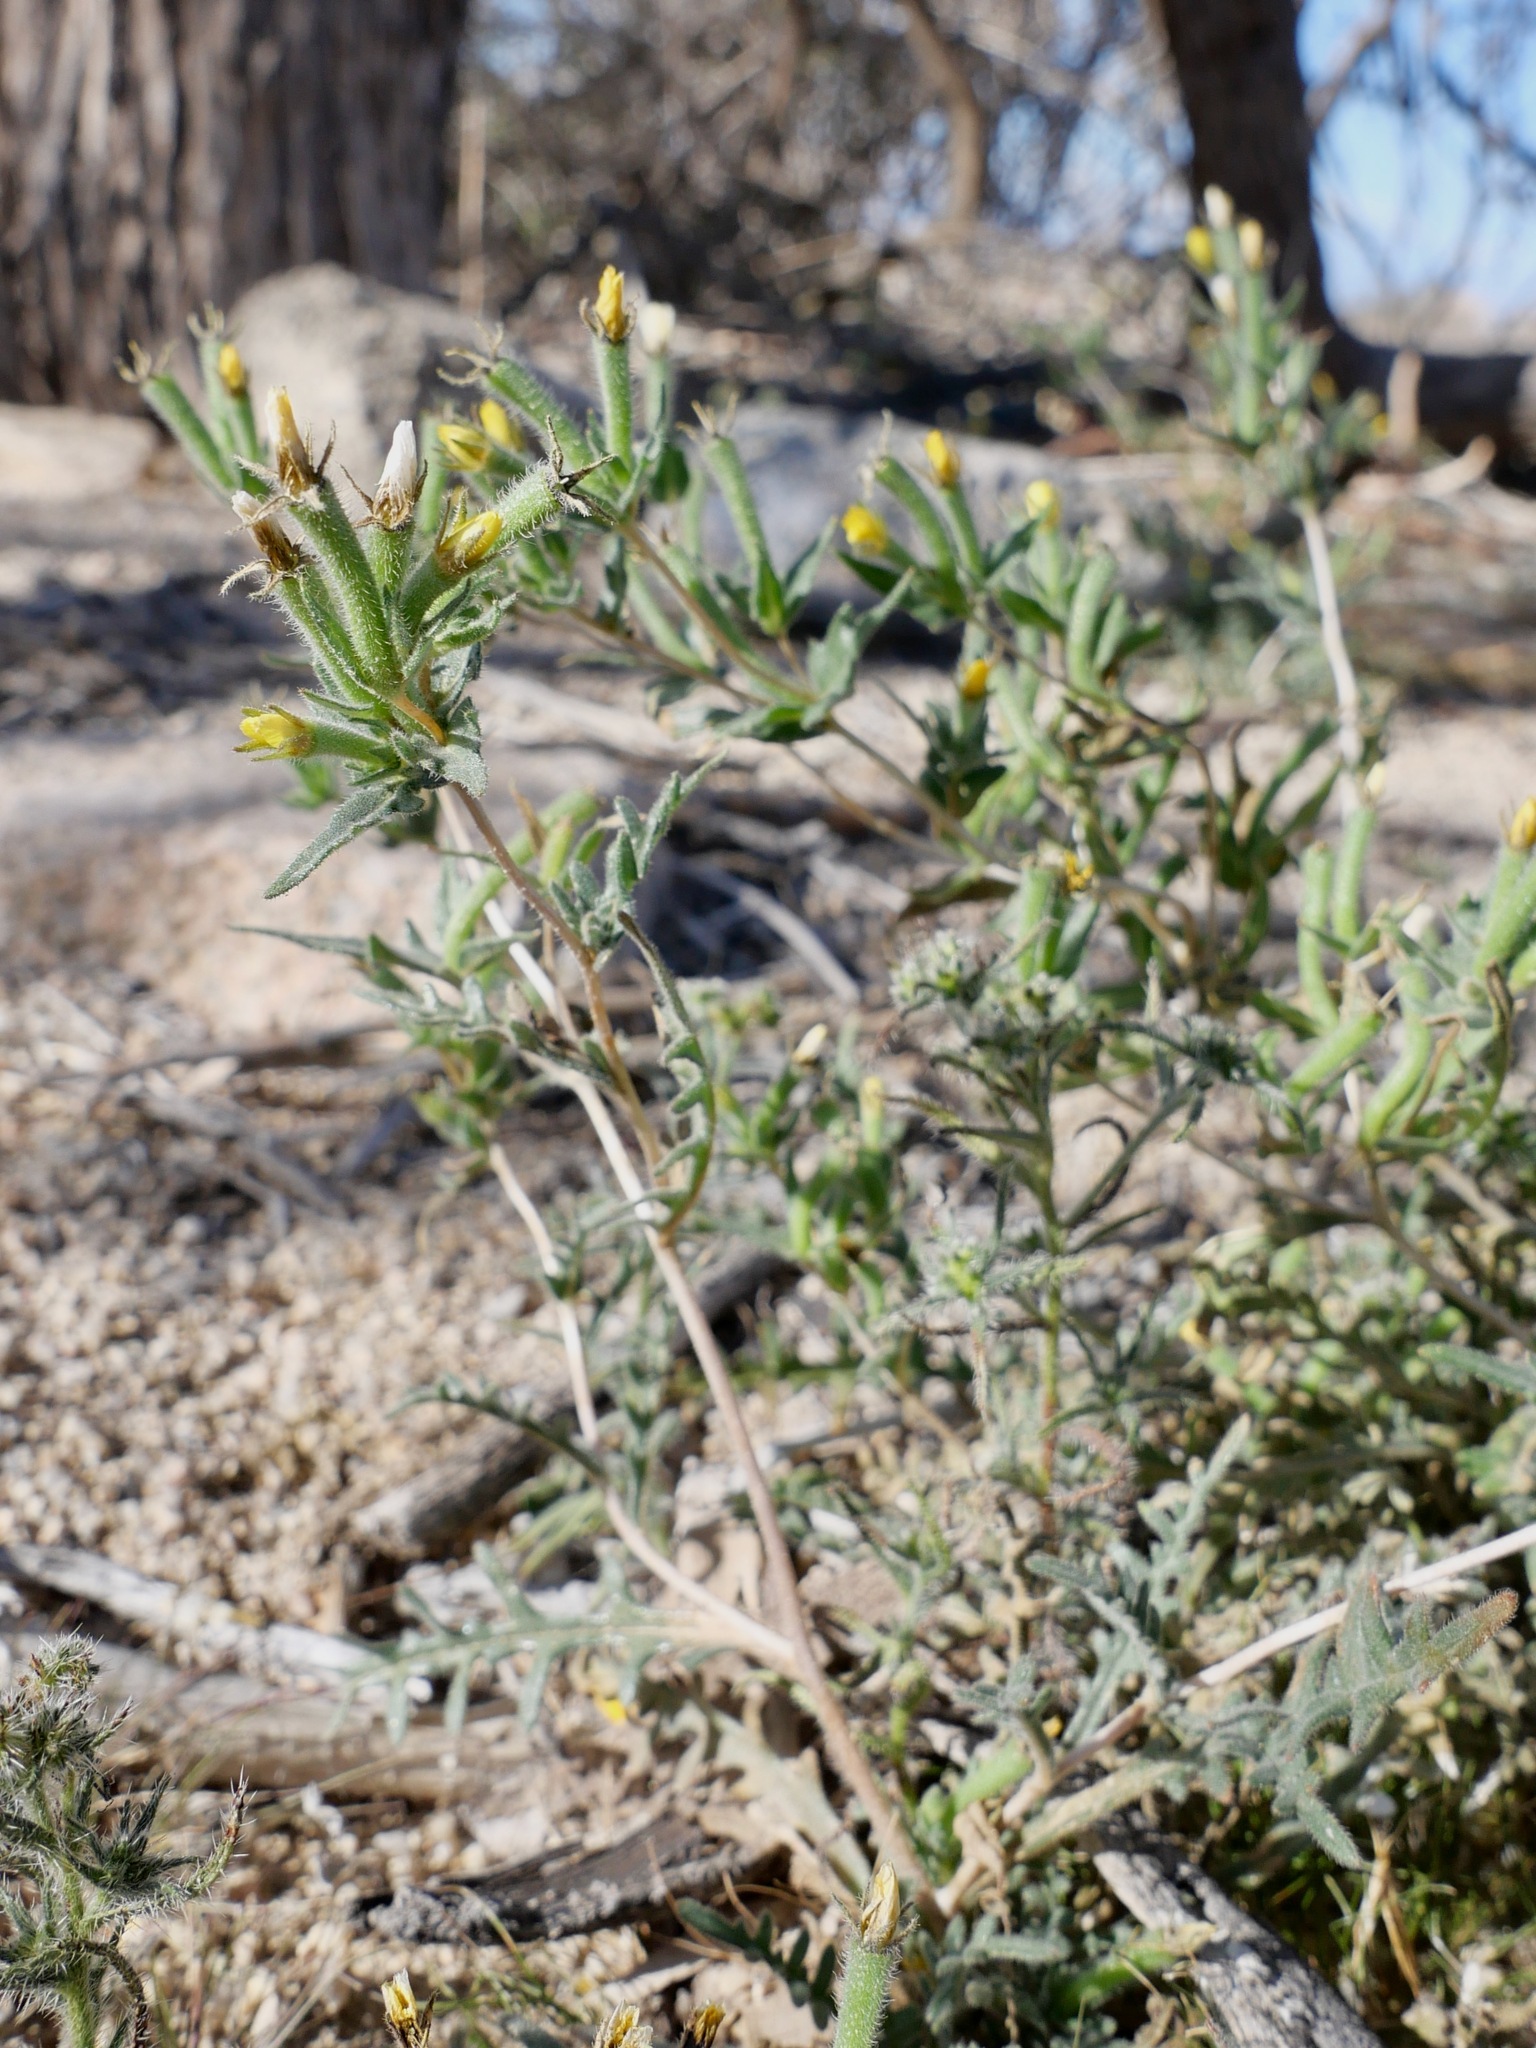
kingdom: Plantae
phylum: Tracheophyta
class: Magnoliopsida
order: Cornales
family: Loasaceae
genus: Mentzelia
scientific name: Mentzelia albicaulis
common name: White-stem blazingstar
